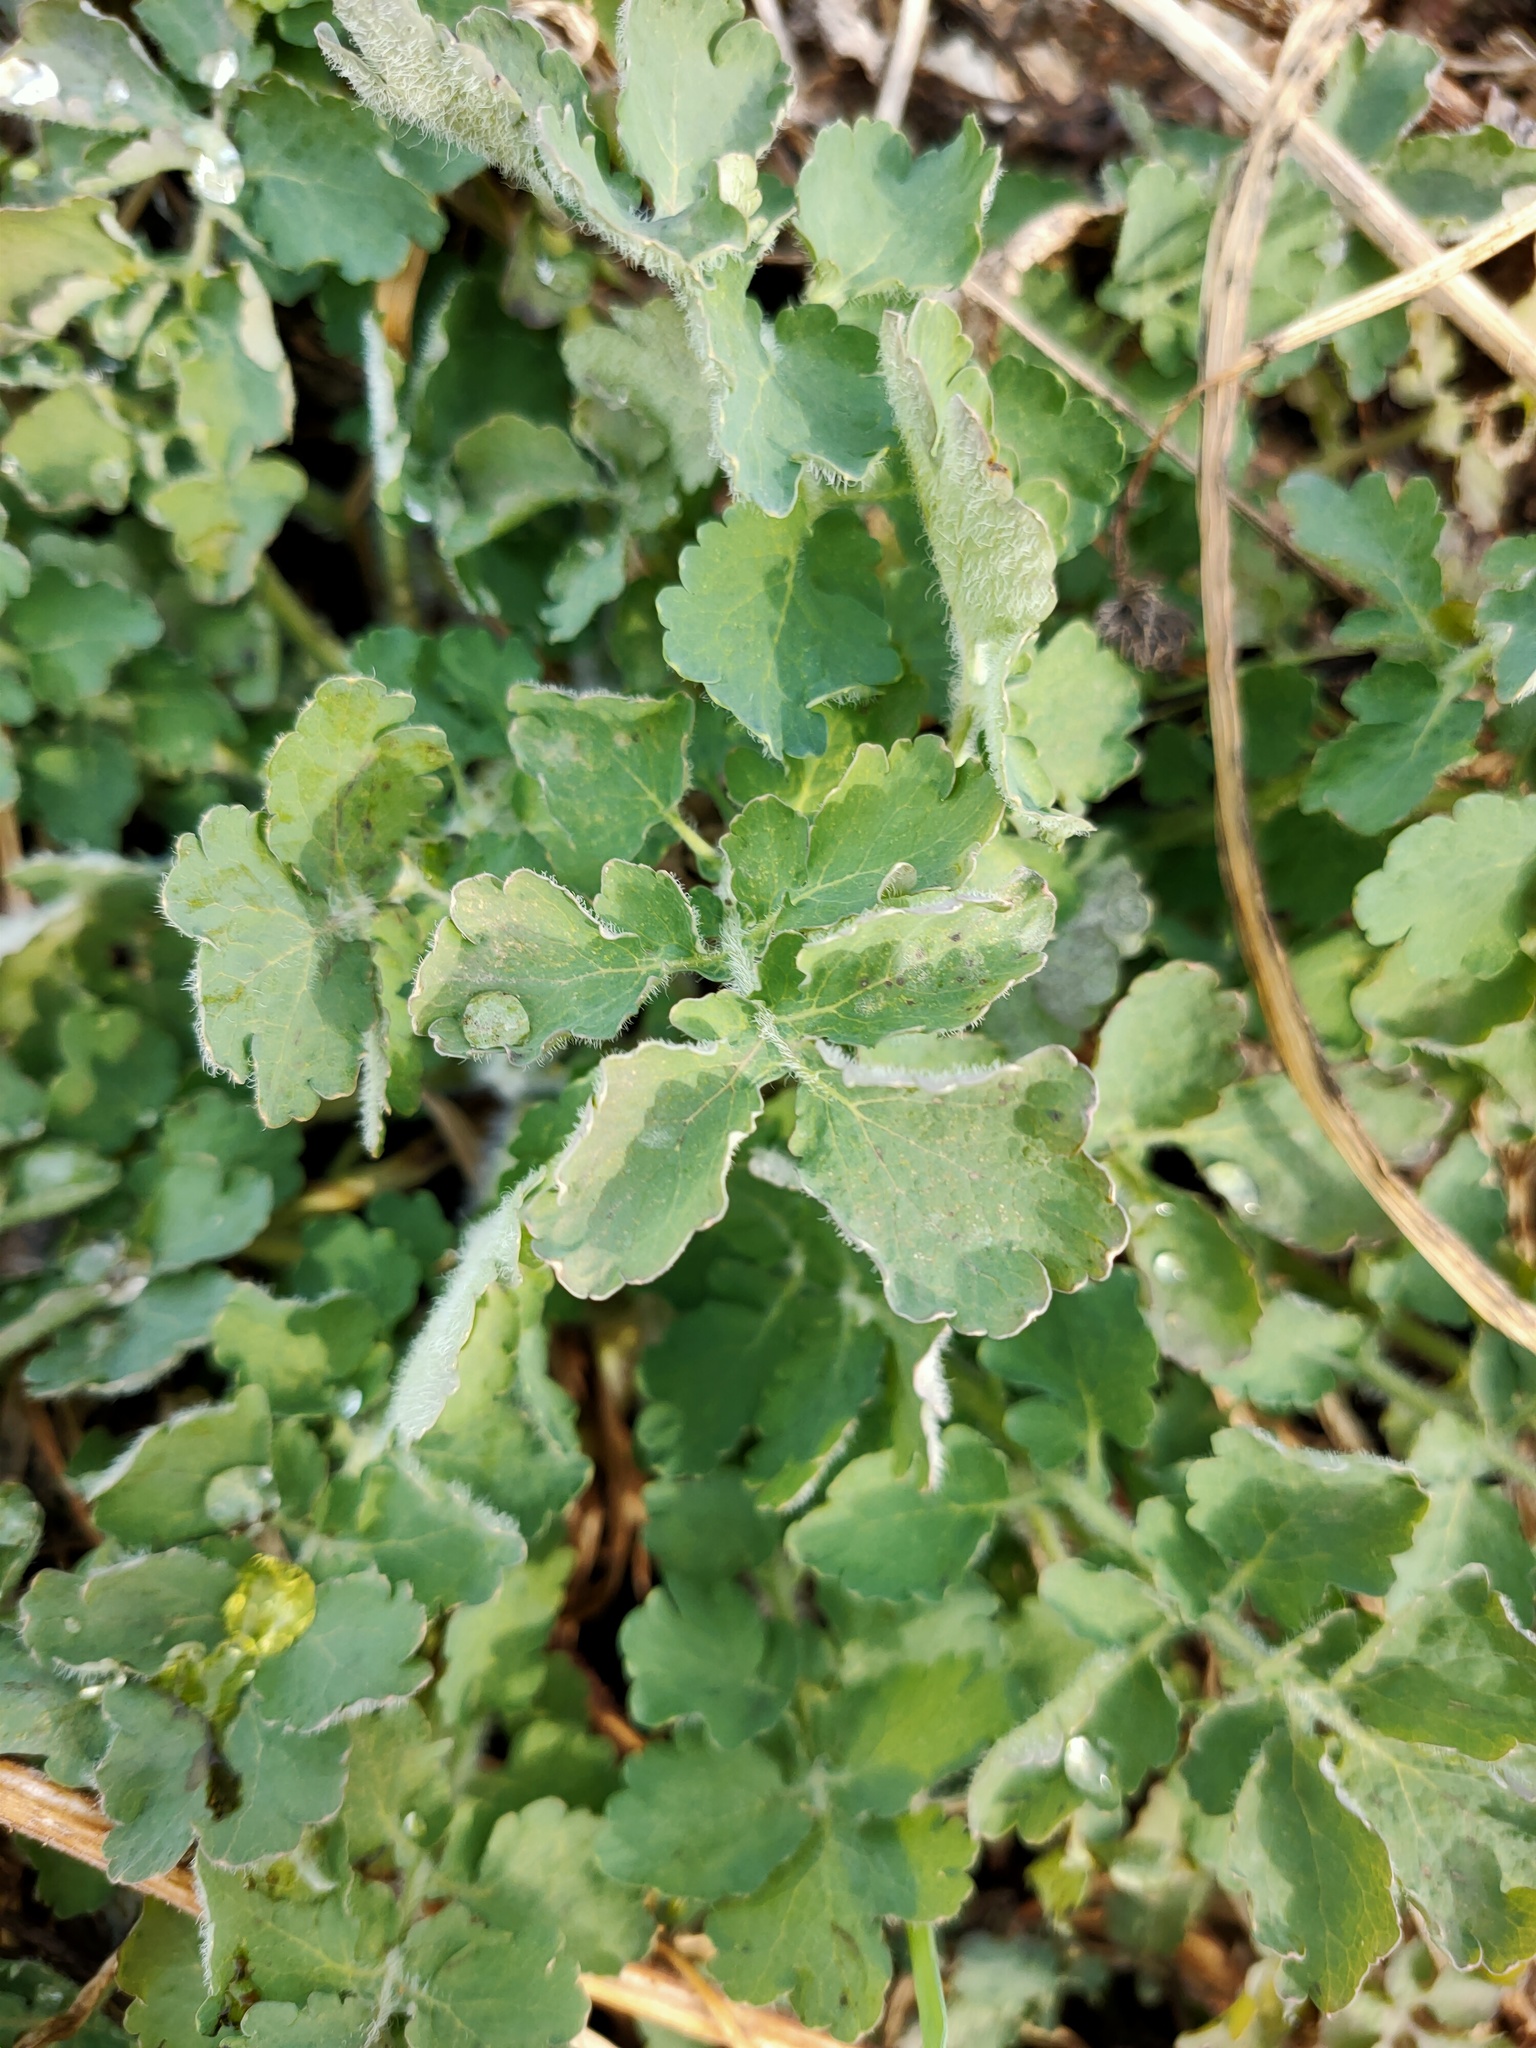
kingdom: Plantae
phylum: Tracheophyta
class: Magnoliopsida
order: Ranunculales
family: Papaveraceae
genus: Chelidonium
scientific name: Chelidonium majus
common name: Greater celandine
